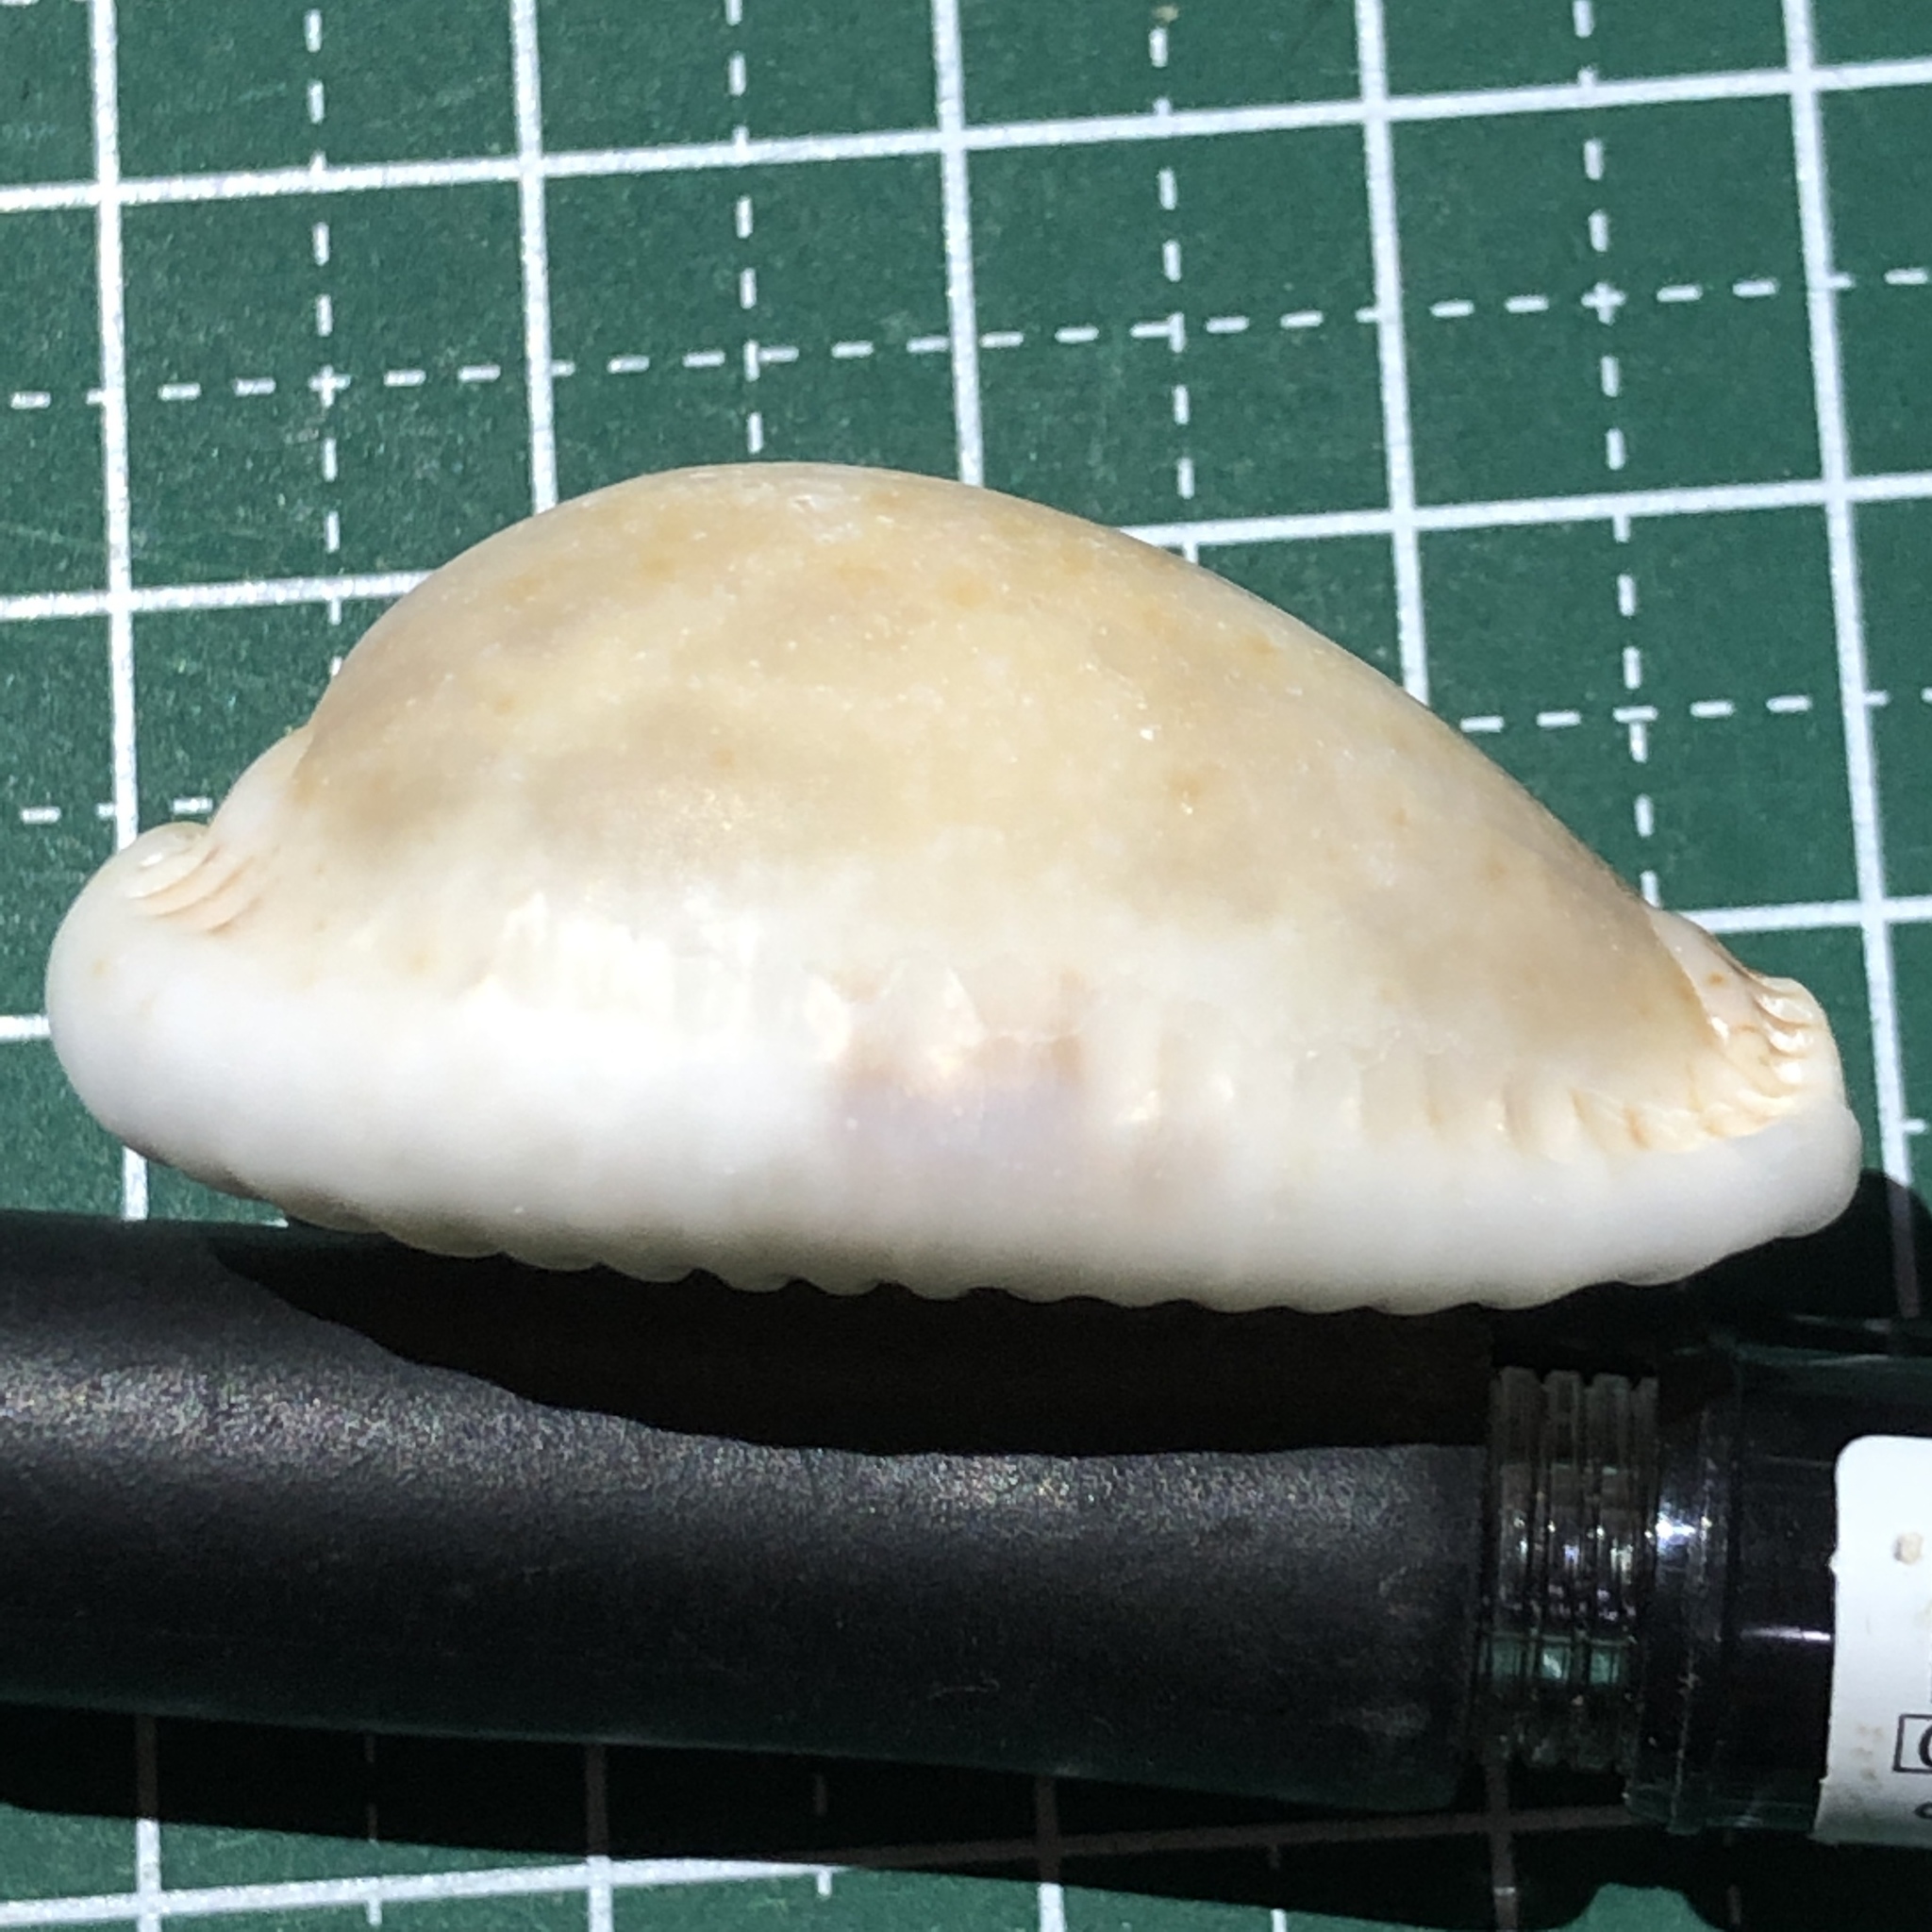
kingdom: Animalia
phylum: Mollusca
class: Gastropoda
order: Littorinimorpha
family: Cypraeidae
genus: Naria
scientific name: Naria erosa
